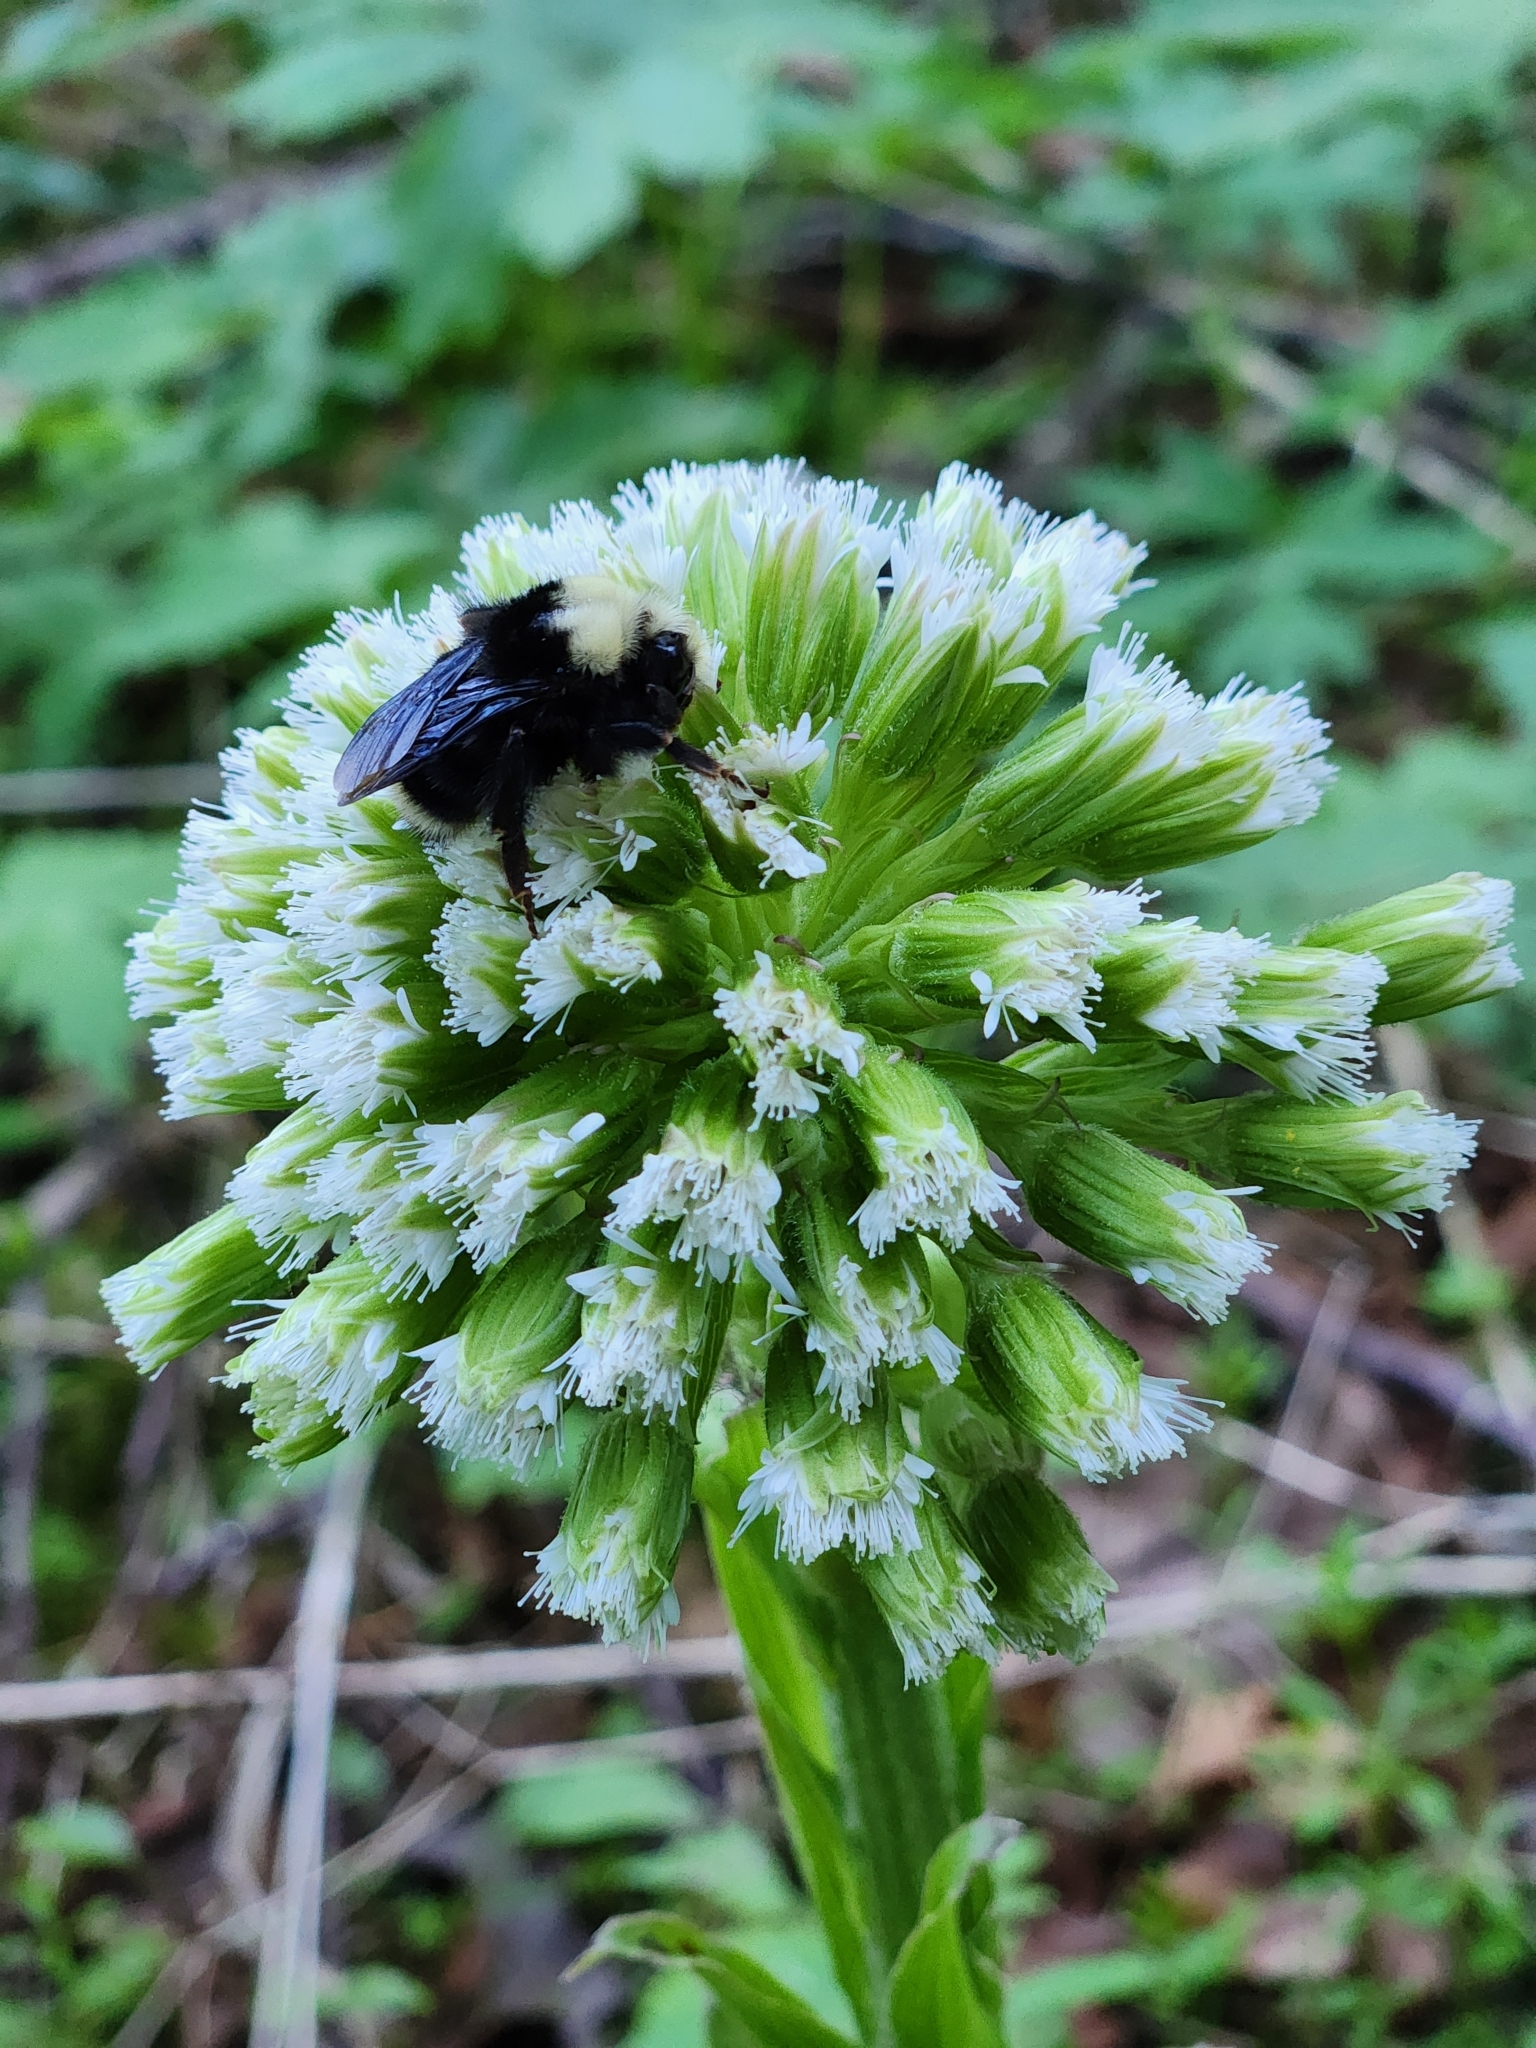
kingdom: Plantae
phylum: Tracheophyta
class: Magnoliopsida
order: Asterales
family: Asteraceae
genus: Petasites
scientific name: Petasites frigidus
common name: Arctic butterbur
